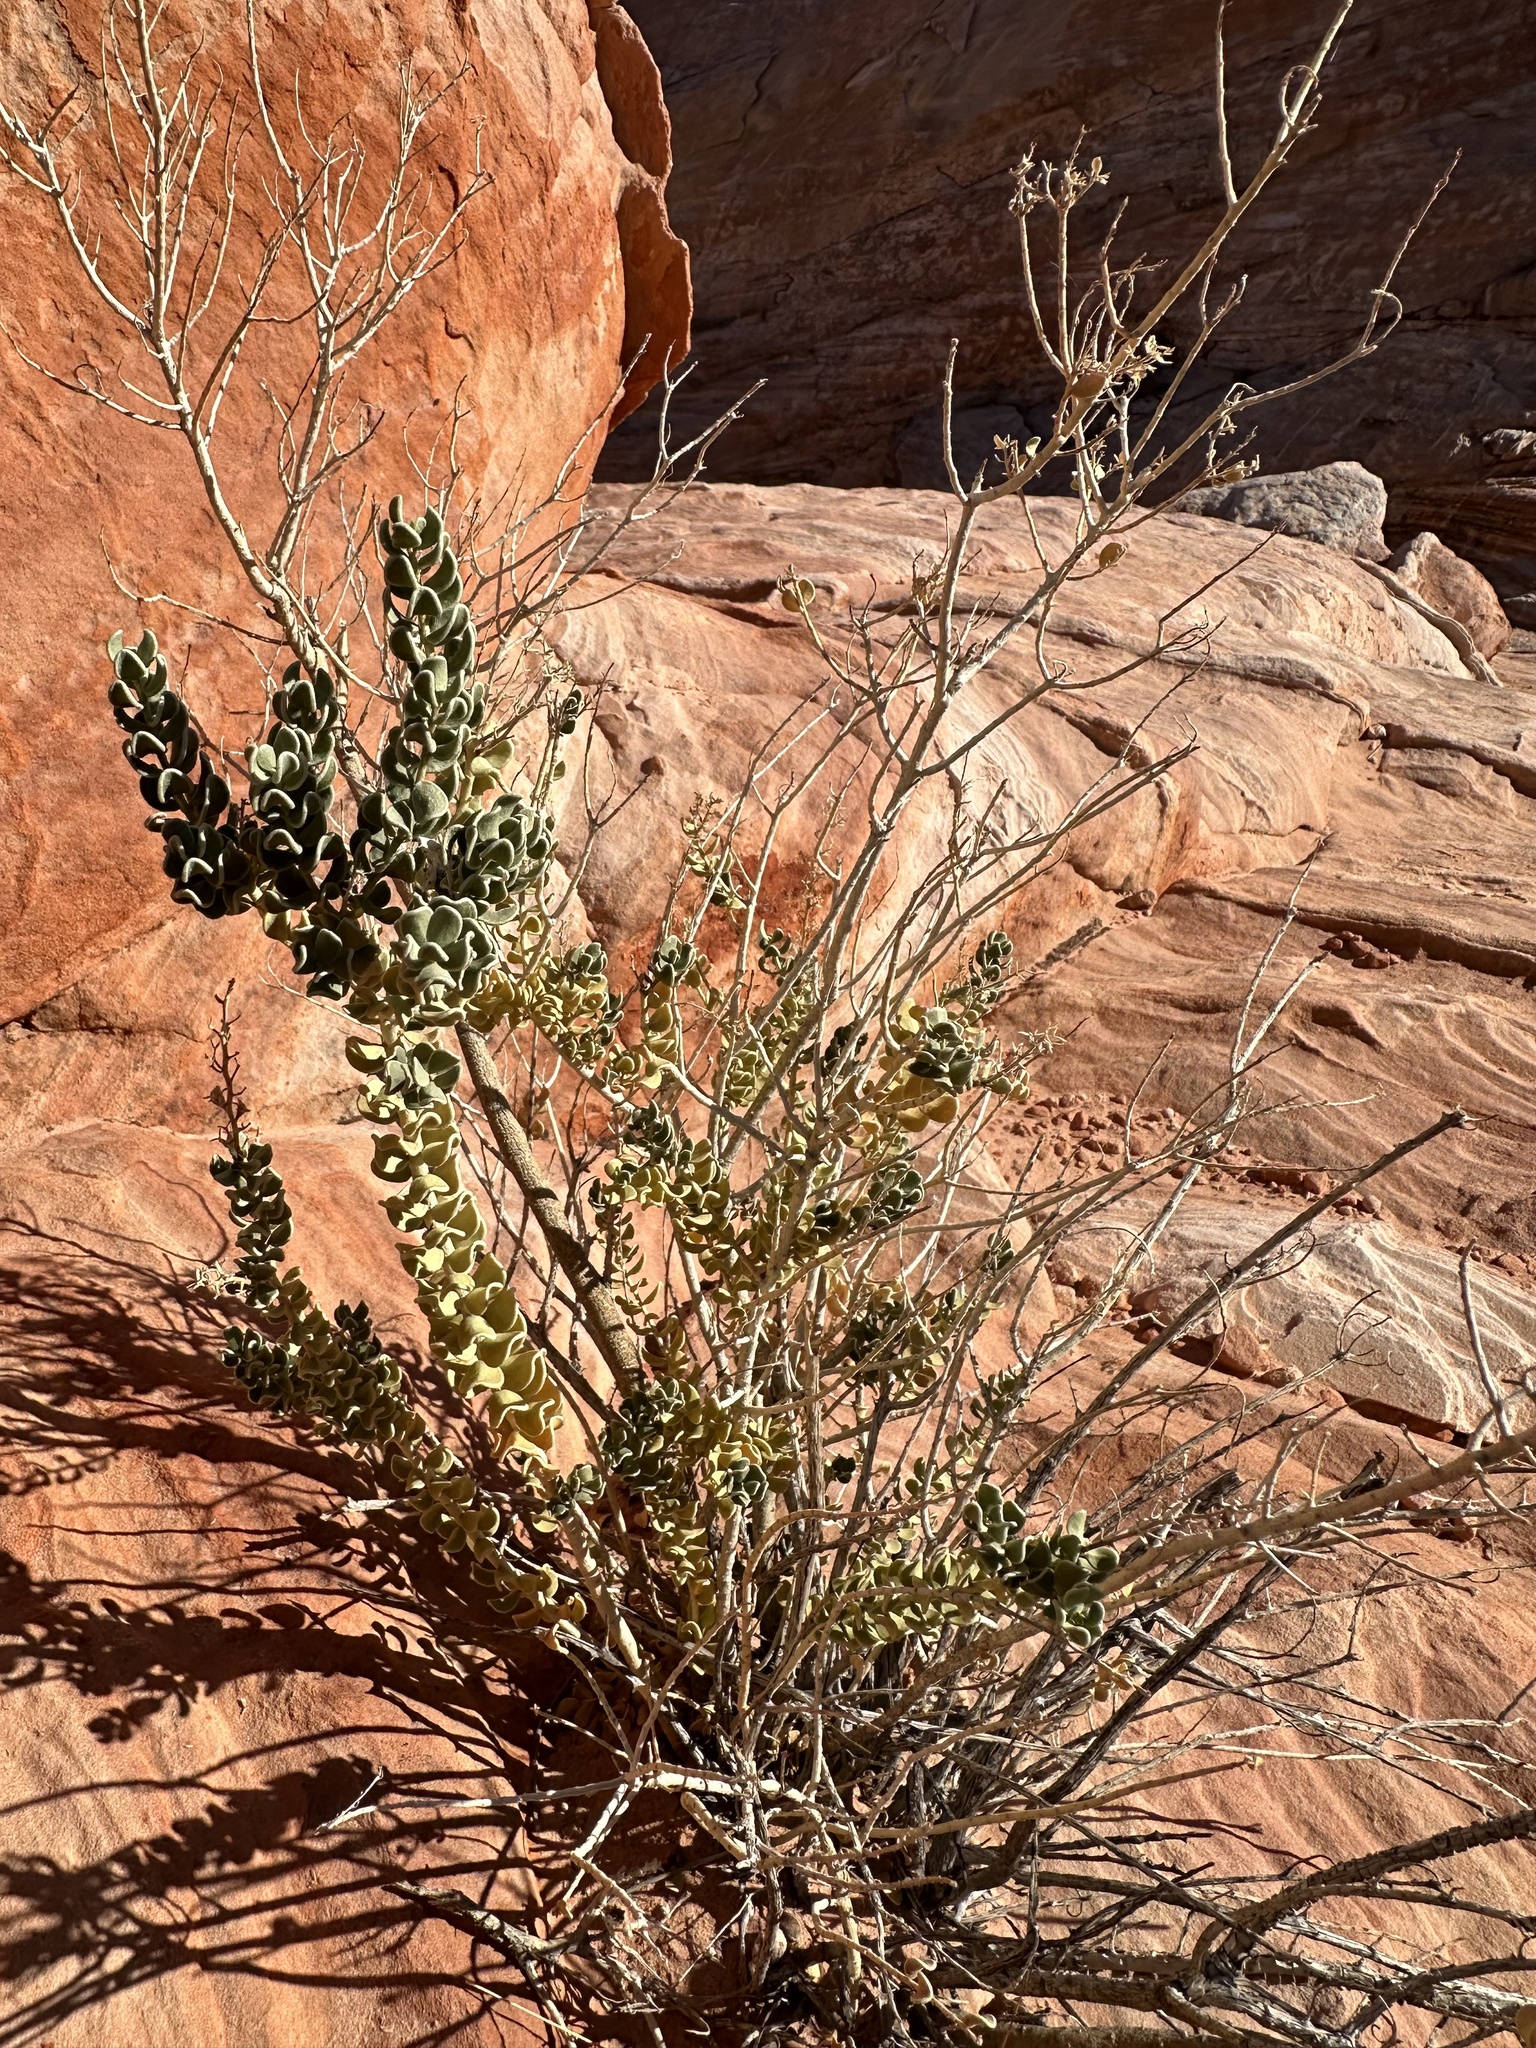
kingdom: Plantae
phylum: Tracheophyta
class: Magnoliopsida
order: Celastrales
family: Celastraceae
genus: Mortonia
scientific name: Mortonia utahensis
